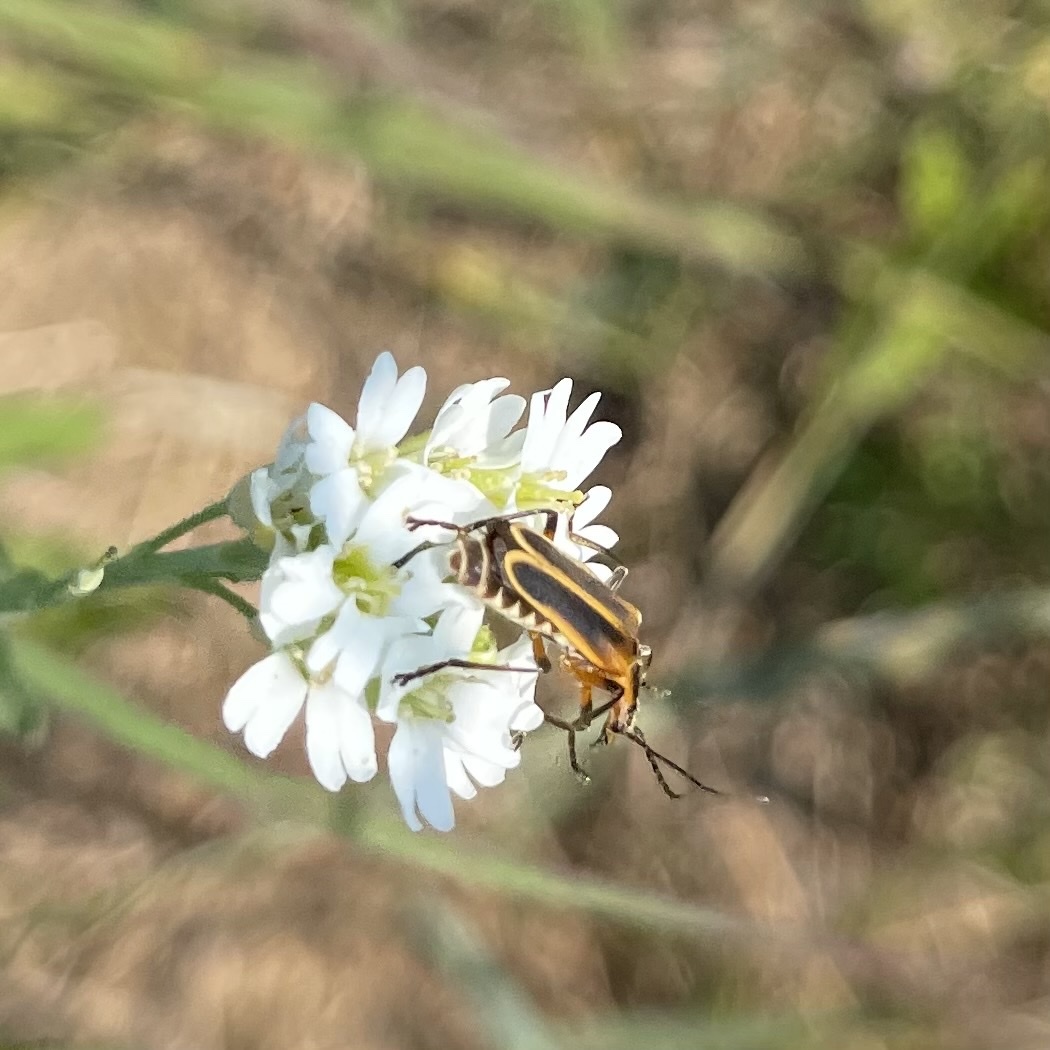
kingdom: Animalia
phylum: Arthropoda
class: Insecta
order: Coleoptera
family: Cantharidae
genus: Chauliognathus
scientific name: Chauliognathus marginatus
